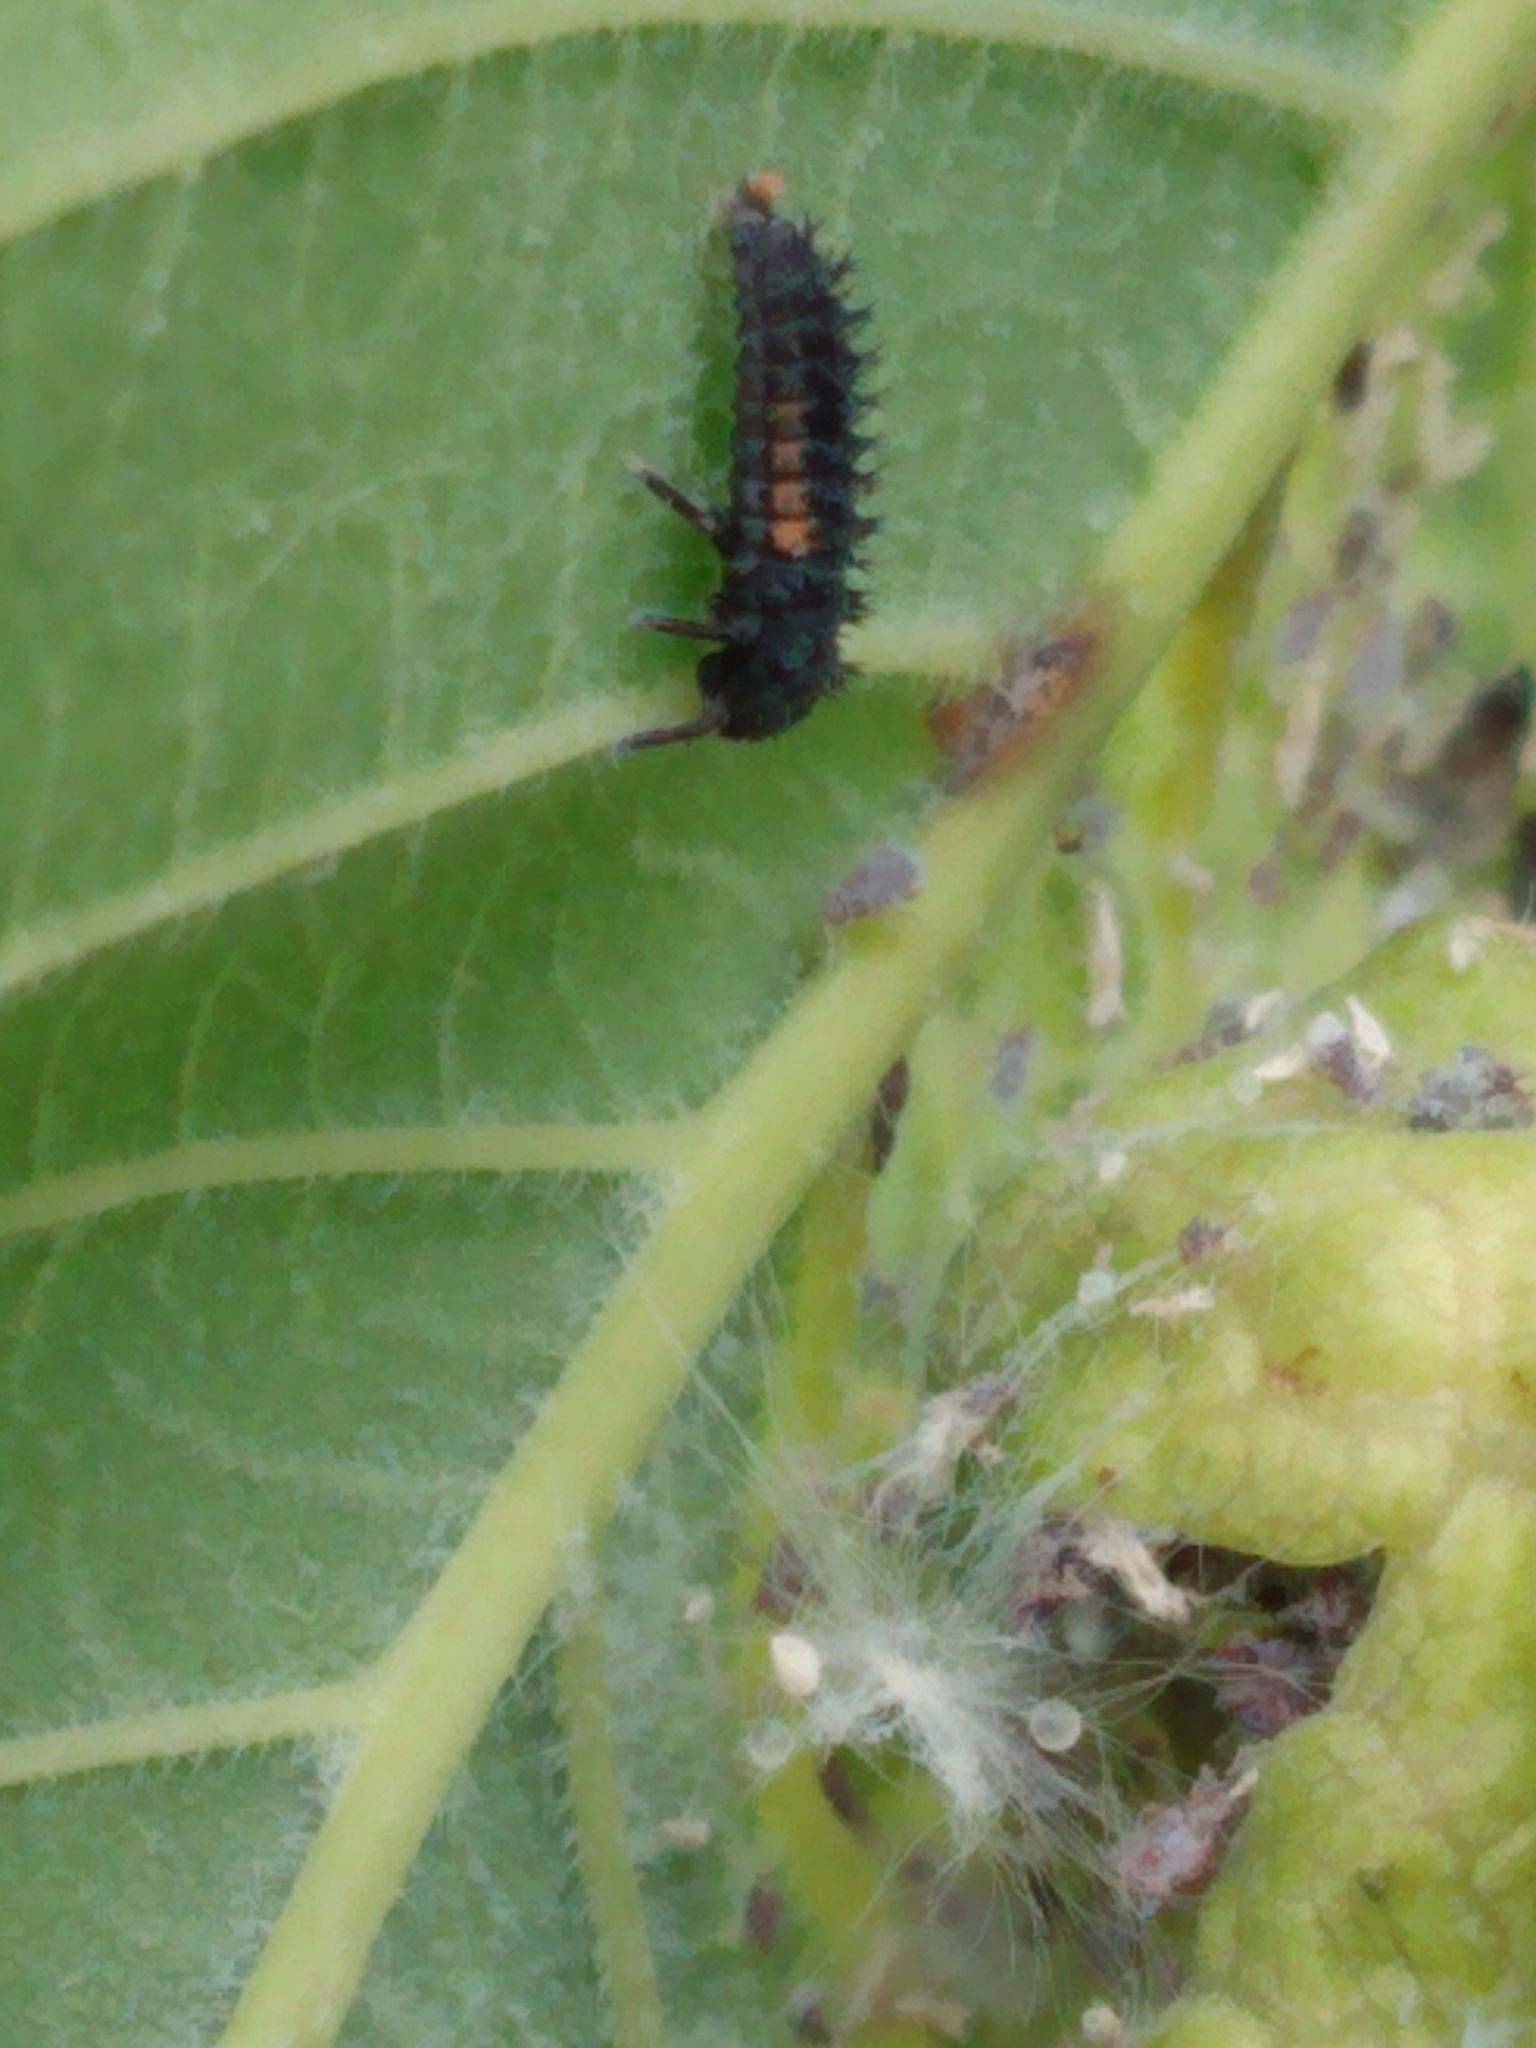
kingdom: Animalia
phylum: Arthropoda
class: Insecta
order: Coleoptera
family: Coccinellidae
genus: Harmonia
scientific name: Harmonia axyridis
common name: Harlequin ladybird
